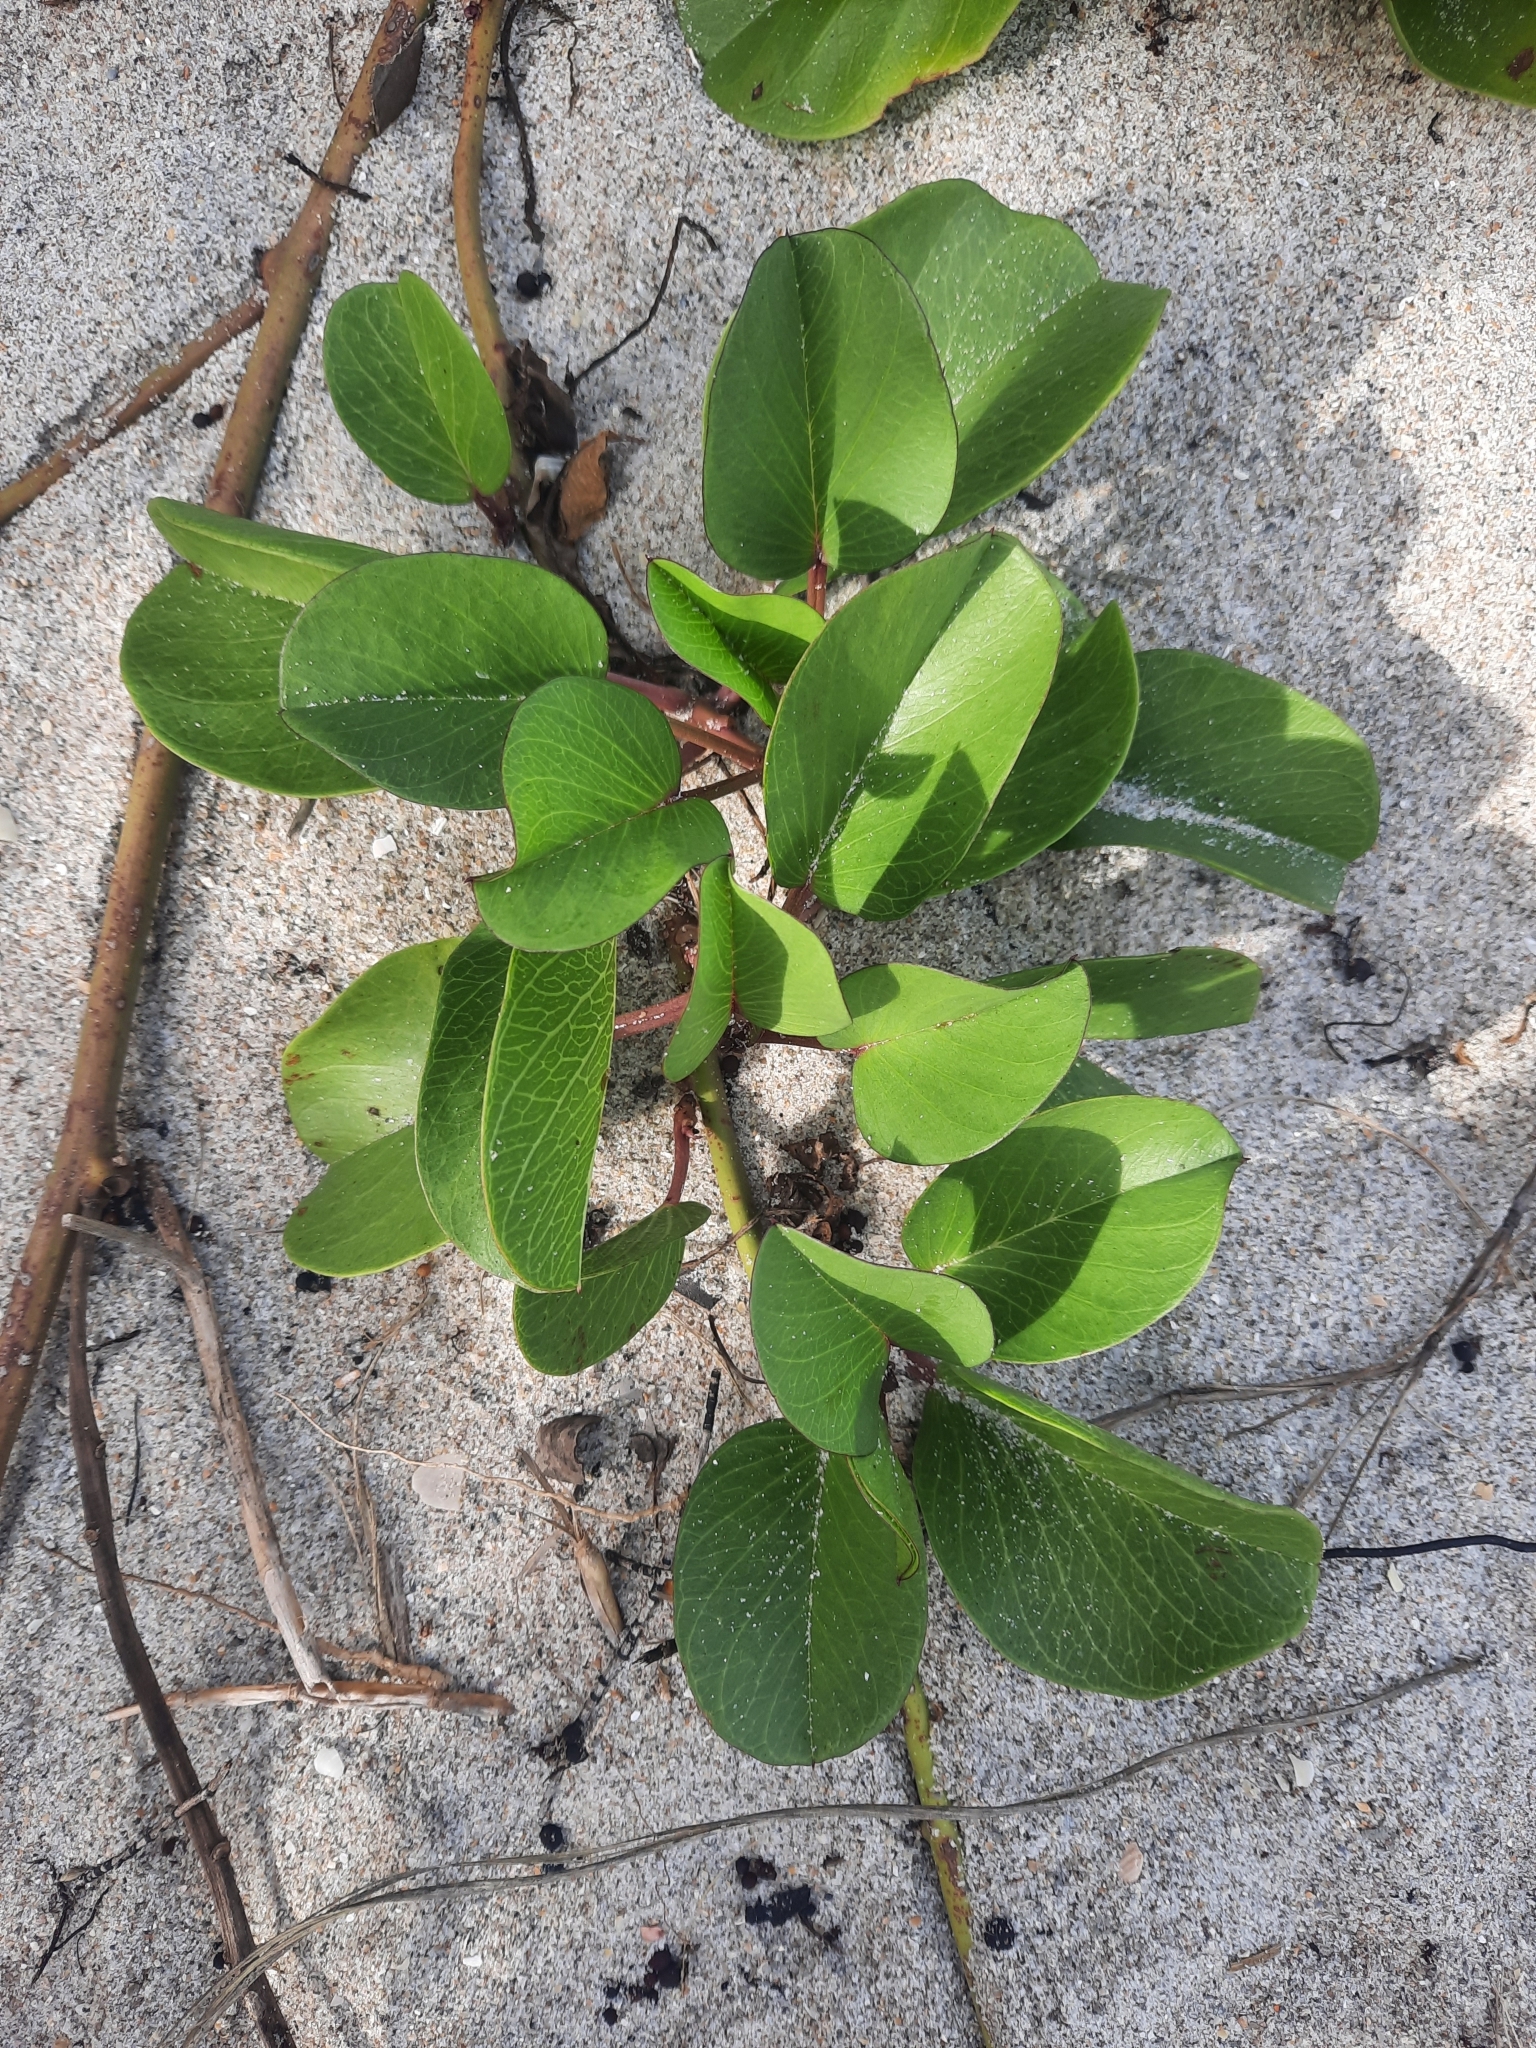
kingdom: Plantae
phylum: Tracheophyta
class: Magnoliopsida
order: Solanales
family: Convolvulaceae
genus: Ipomoea
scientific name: Ipomoea pes-caprae
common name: Beach morning glory
